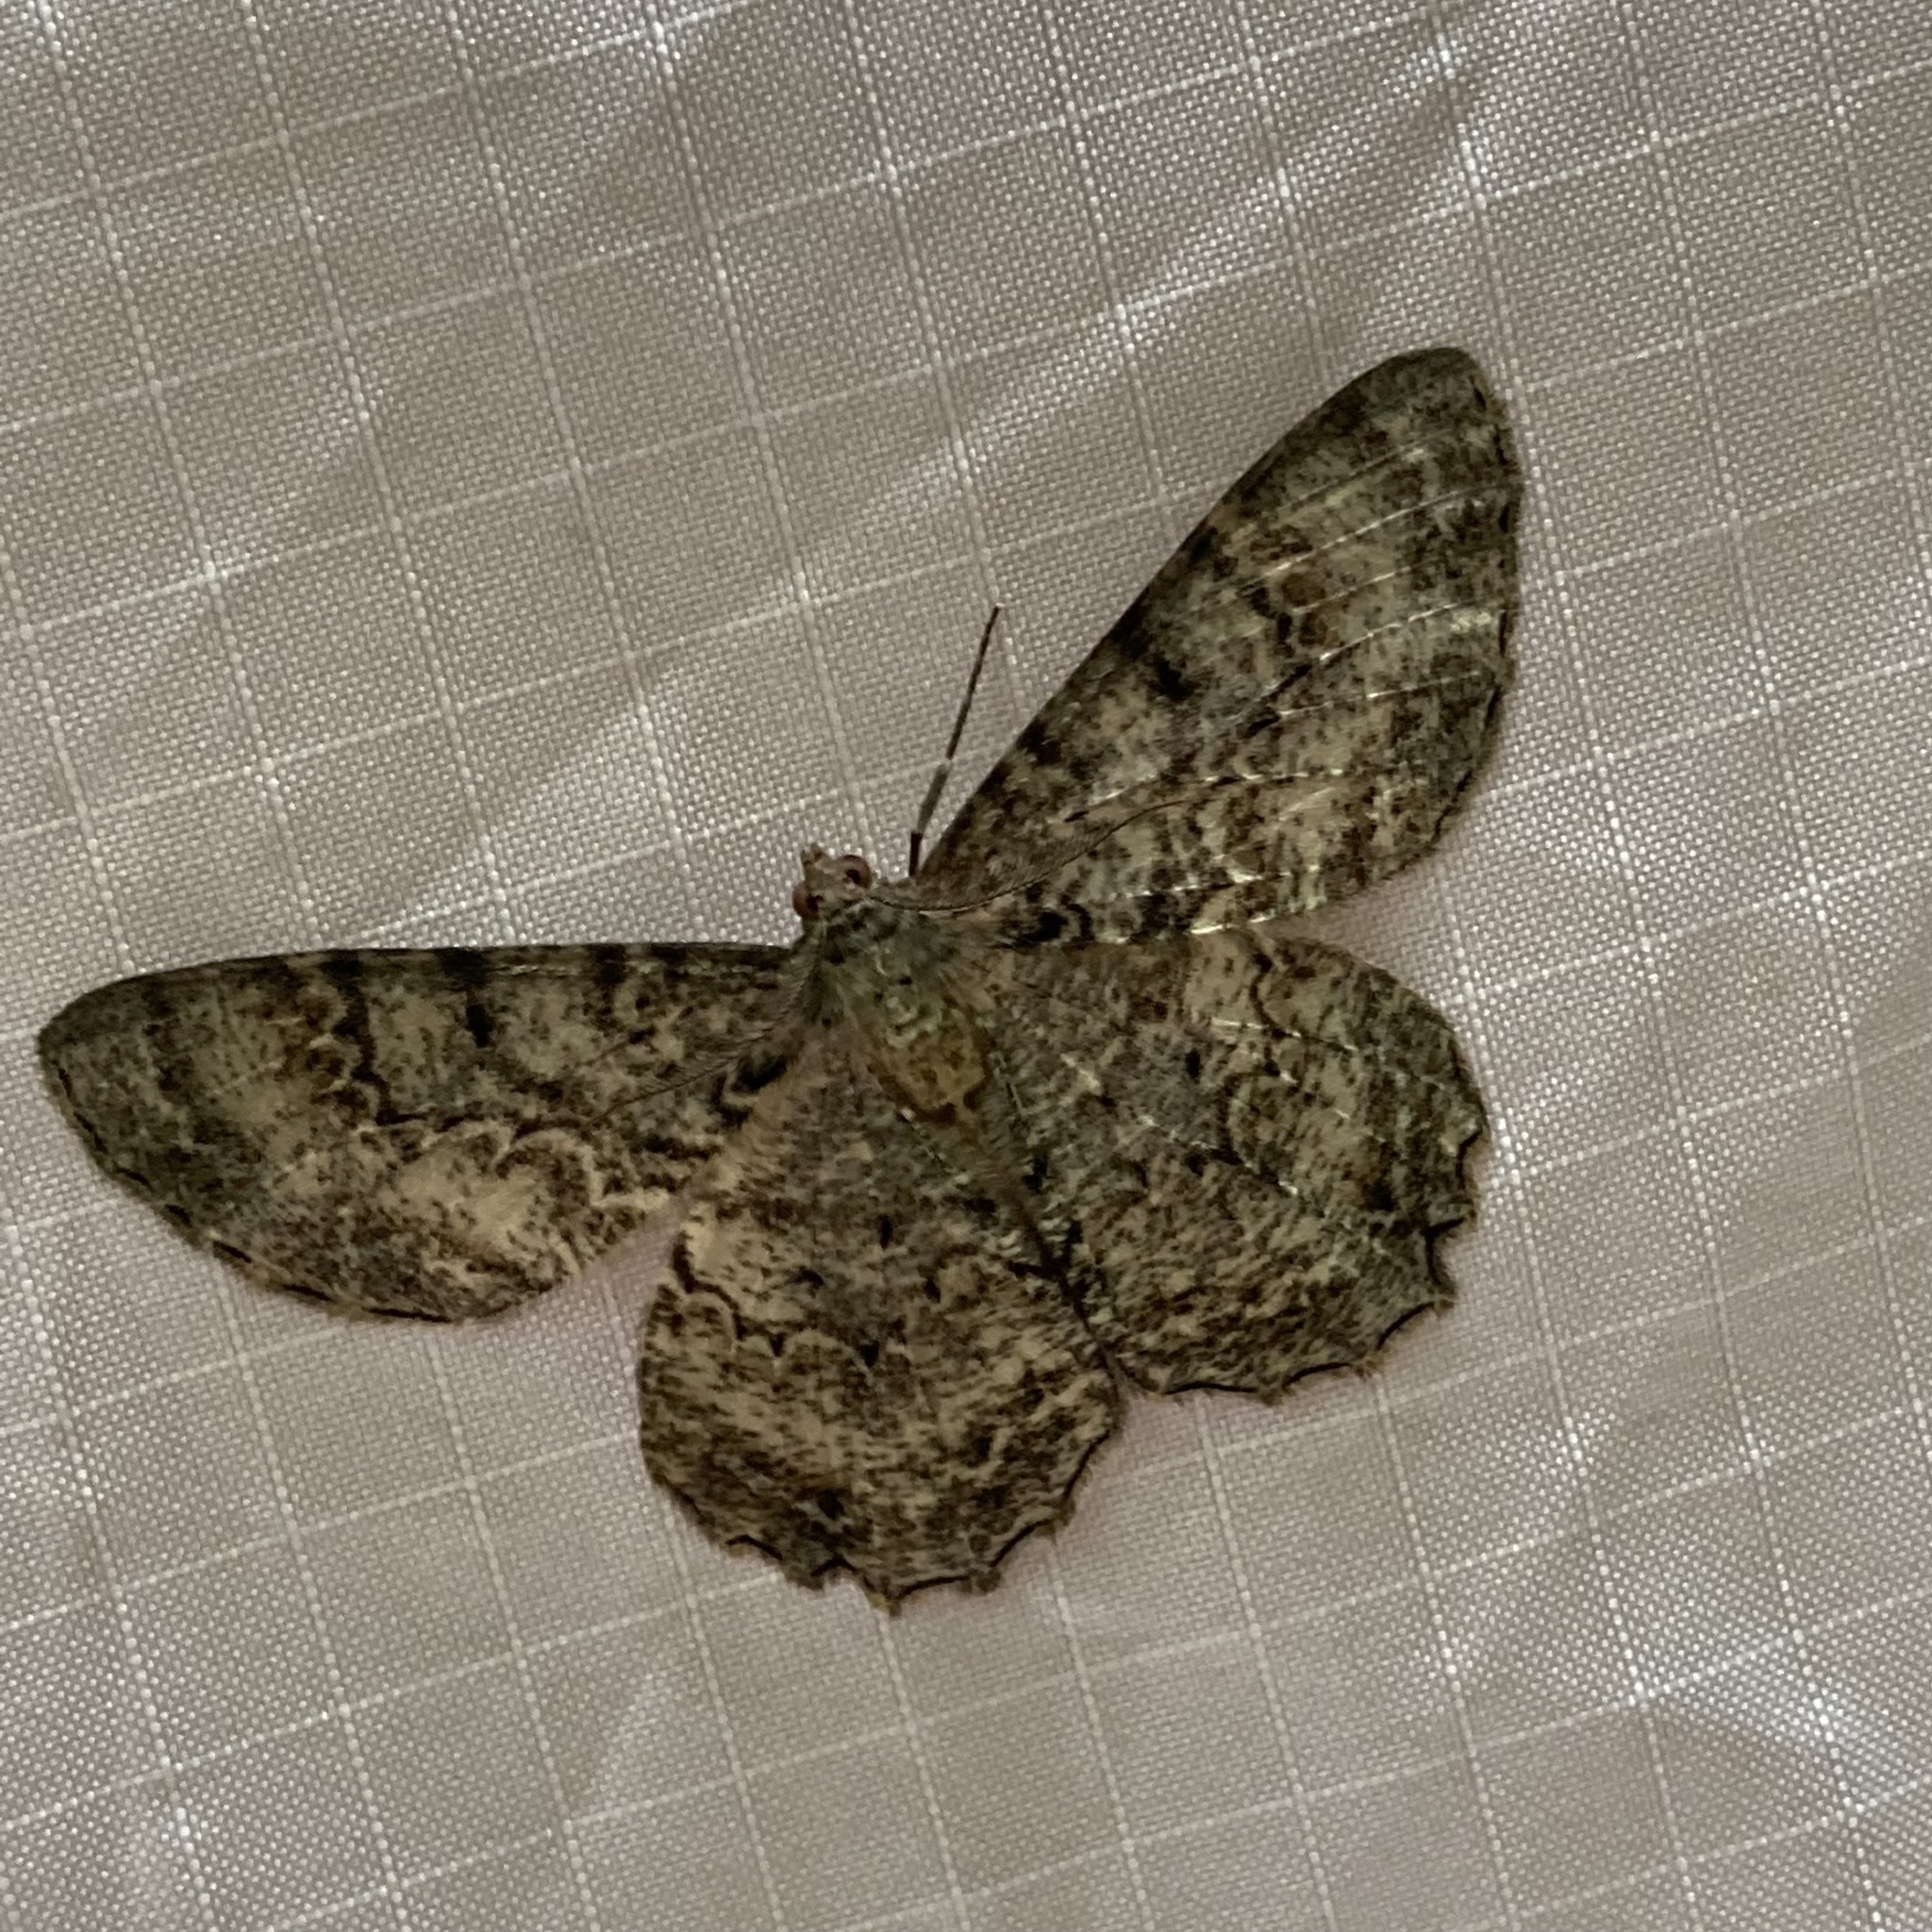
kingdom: Animalia
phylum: Arthropoda
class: Insecta
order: Lepidoptera
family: Geometridae
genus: Epimecis
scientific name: Epimecis hortaria
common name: Tulip-tree beauty
